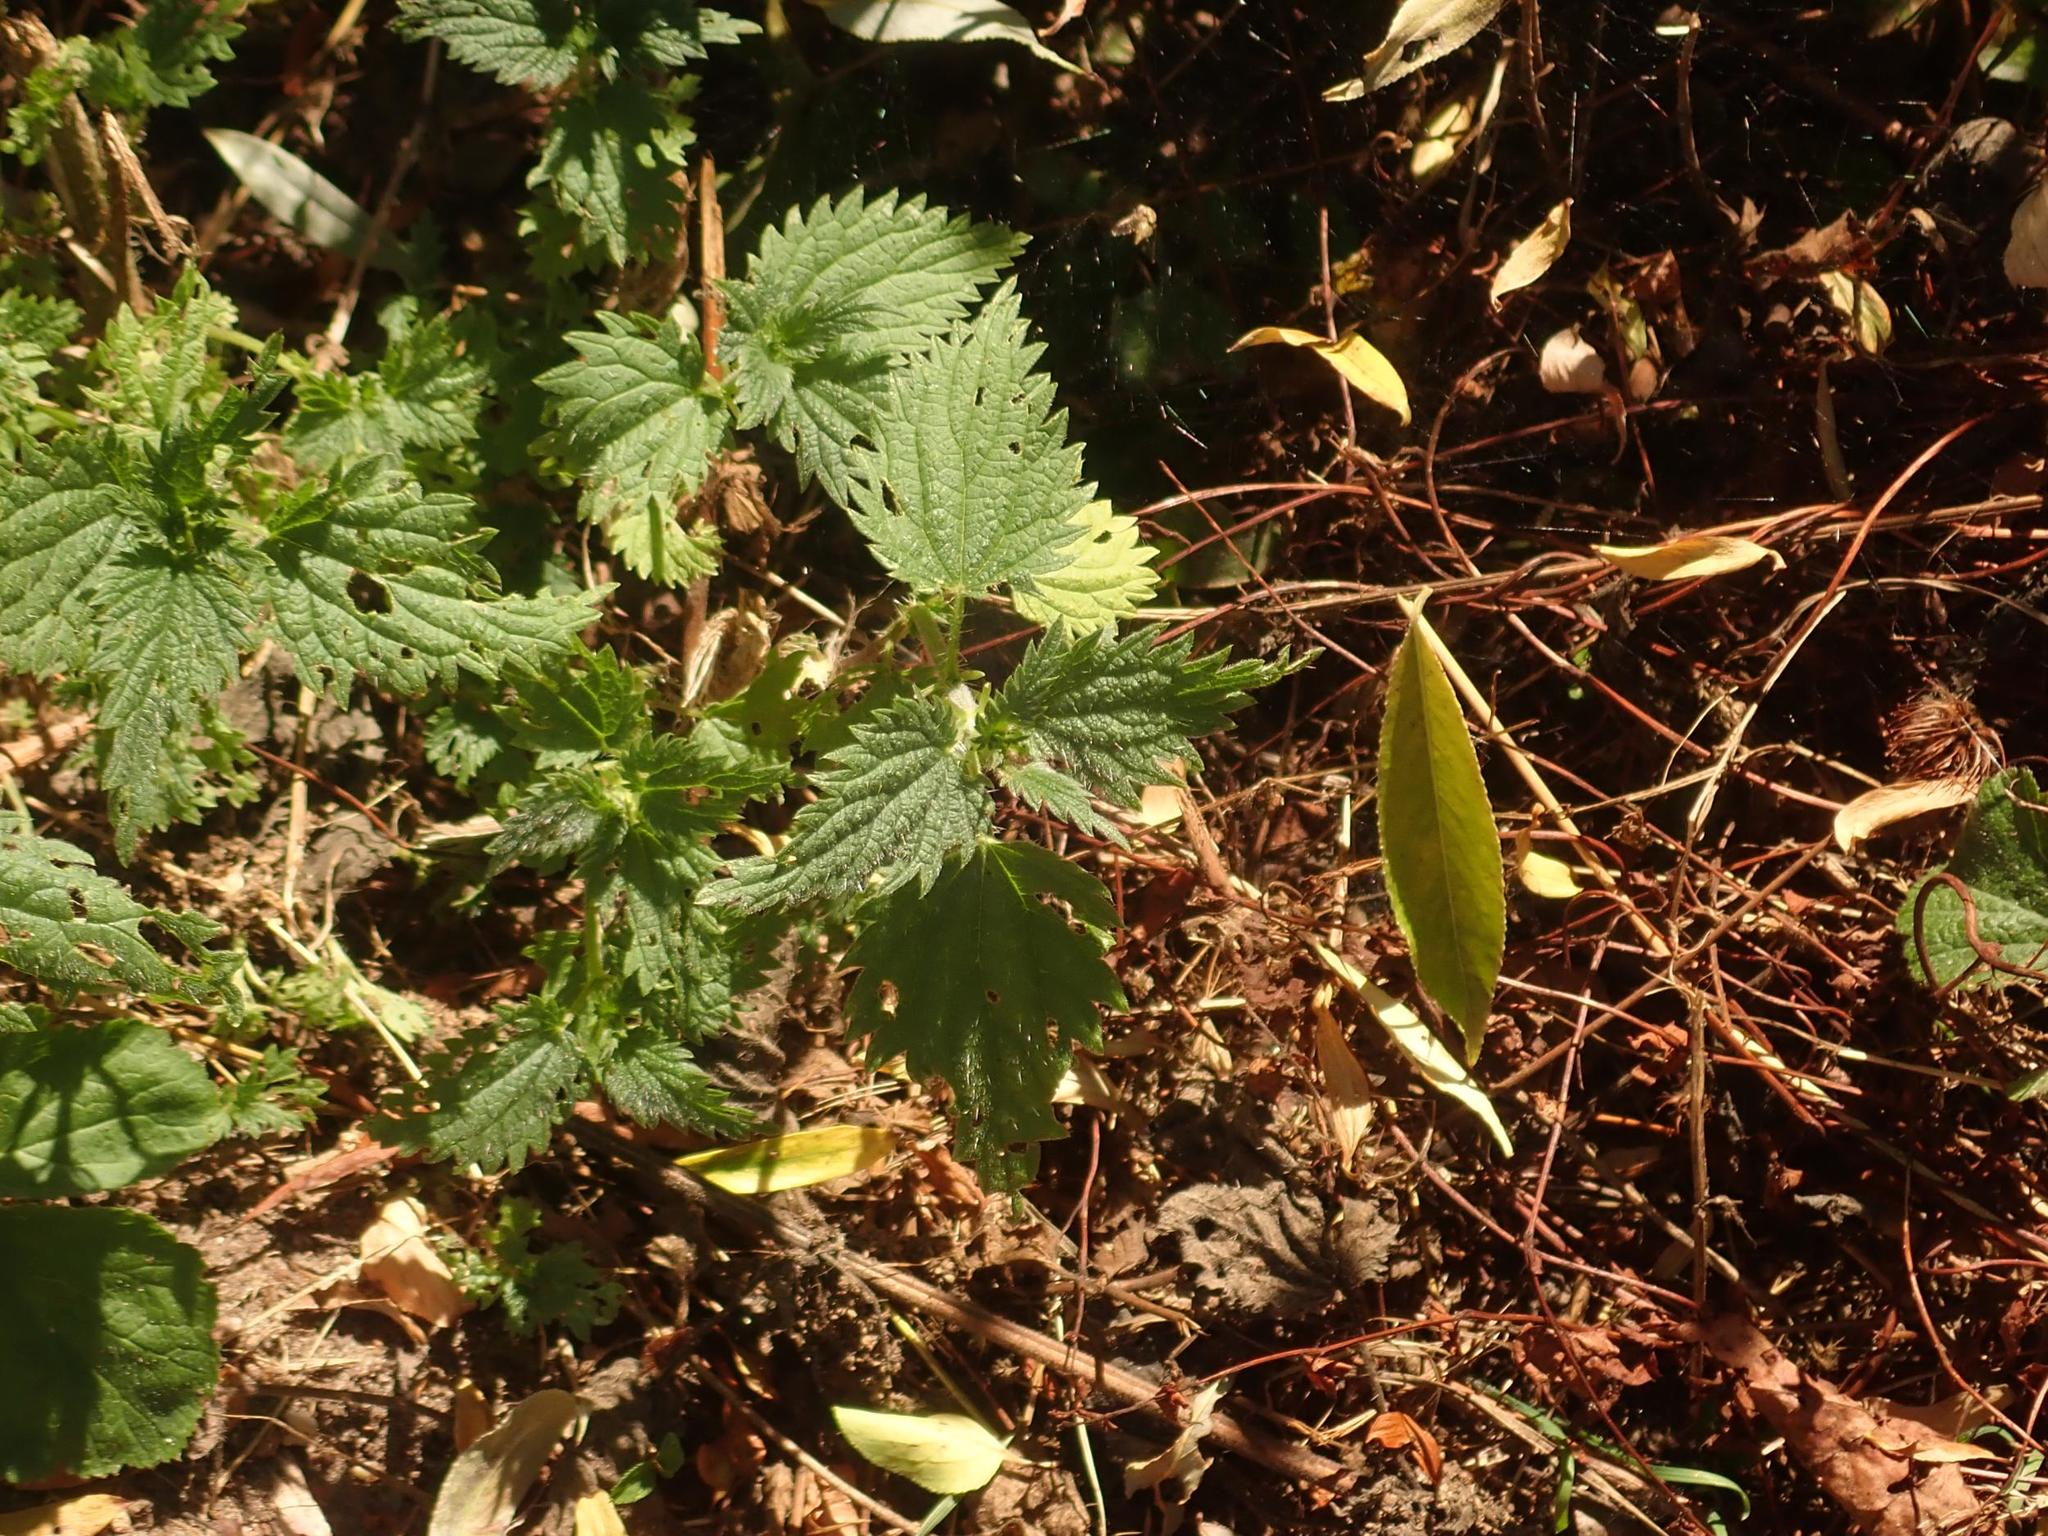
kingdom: Plantae
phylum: Tracheophyta
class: Magnoliopsida
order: Rosales
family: Urticaceae
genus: Urtica
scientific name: Urtica dioica
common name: Common nettle
